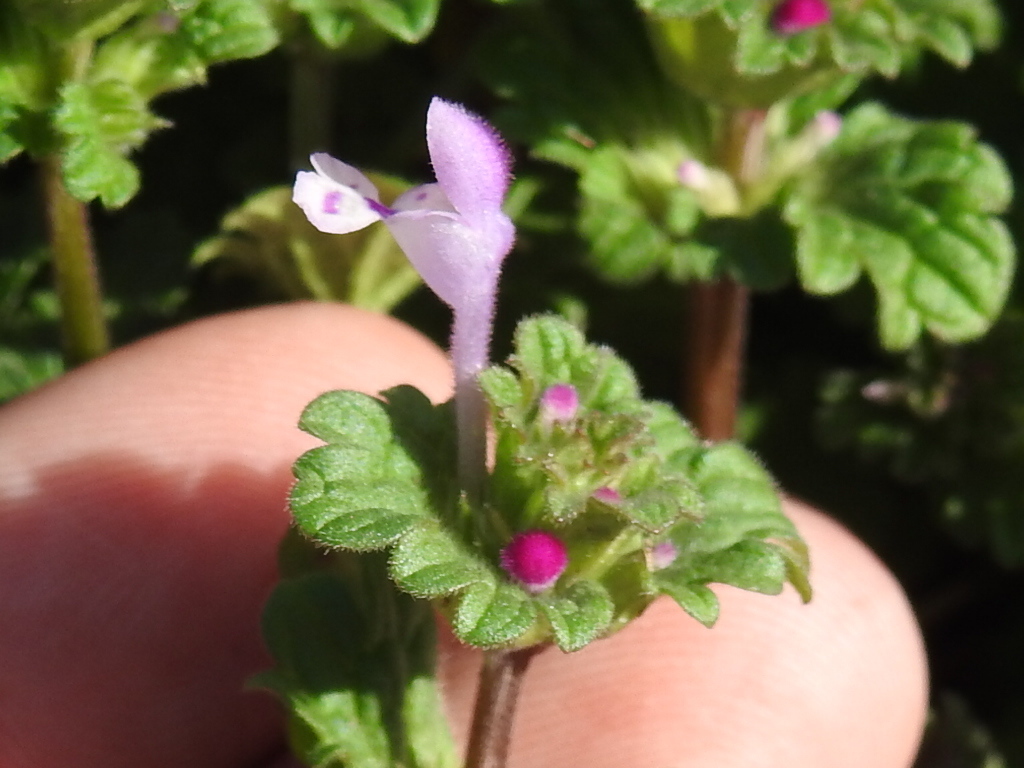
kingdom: Plantae
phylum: Tracheophyta
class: Magnoliopsida
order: Lamiales
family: Lamiaceae
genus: Lamium
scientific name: Lamium amplexicaule
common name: Henbit dead-nettle
